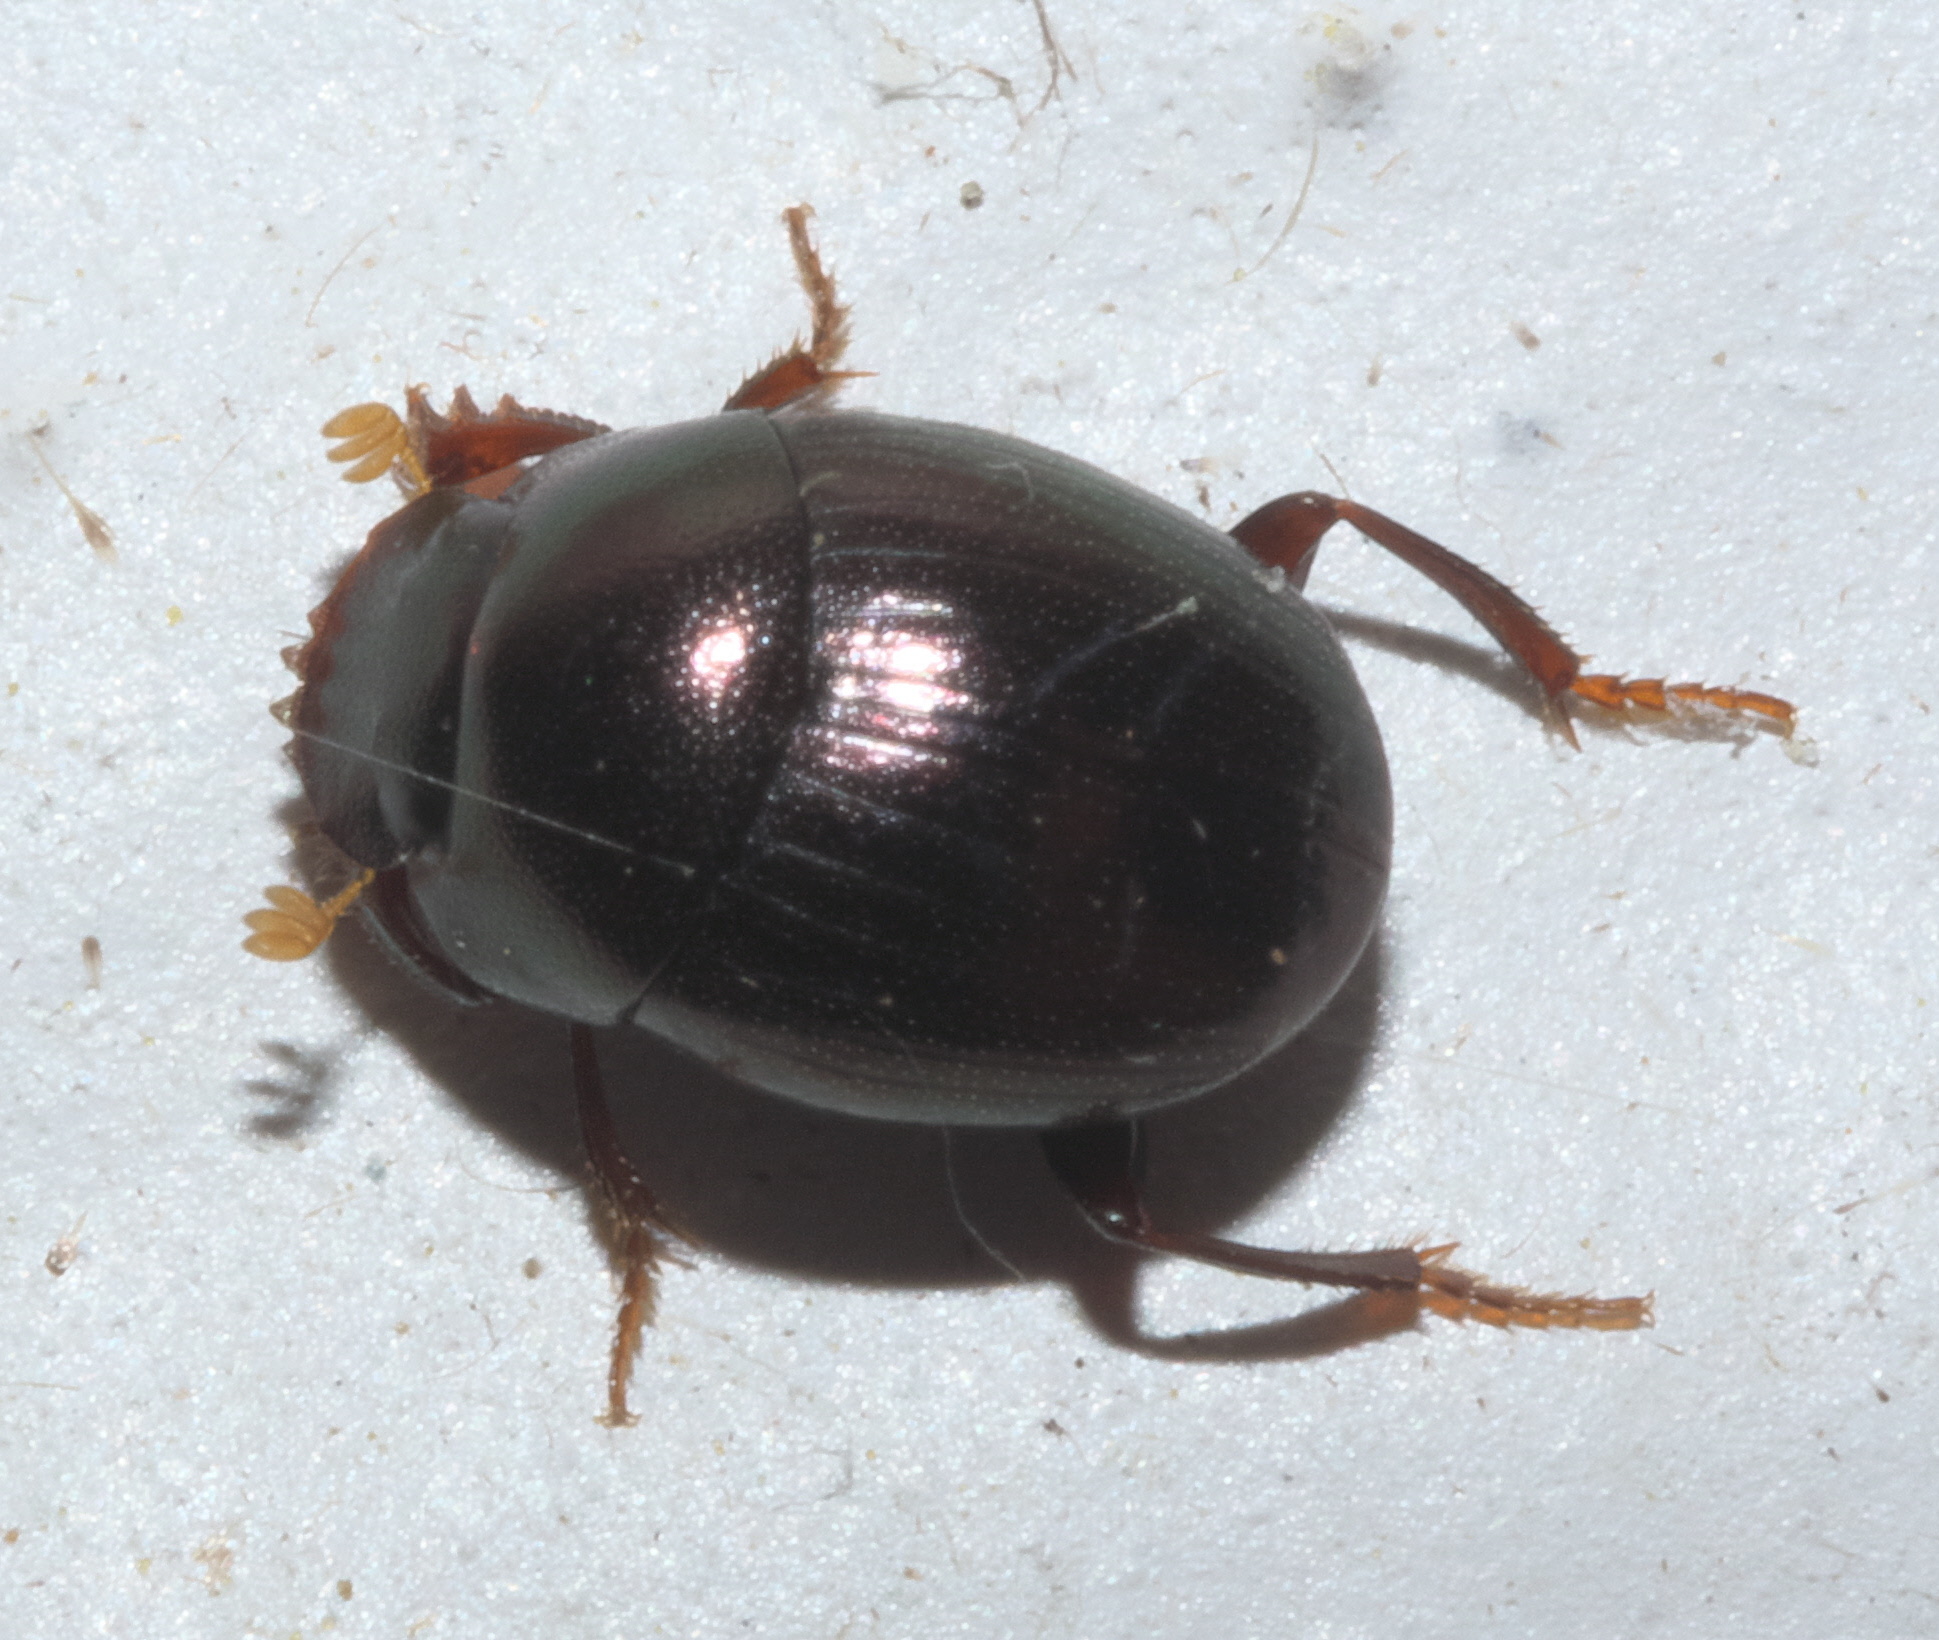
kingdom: Animalia
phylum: Arthropoda
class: Insecta
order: Coleoptera
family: Scarabaeidae
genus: Pseudocanthon
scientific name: Pseudocanthon perplexus
